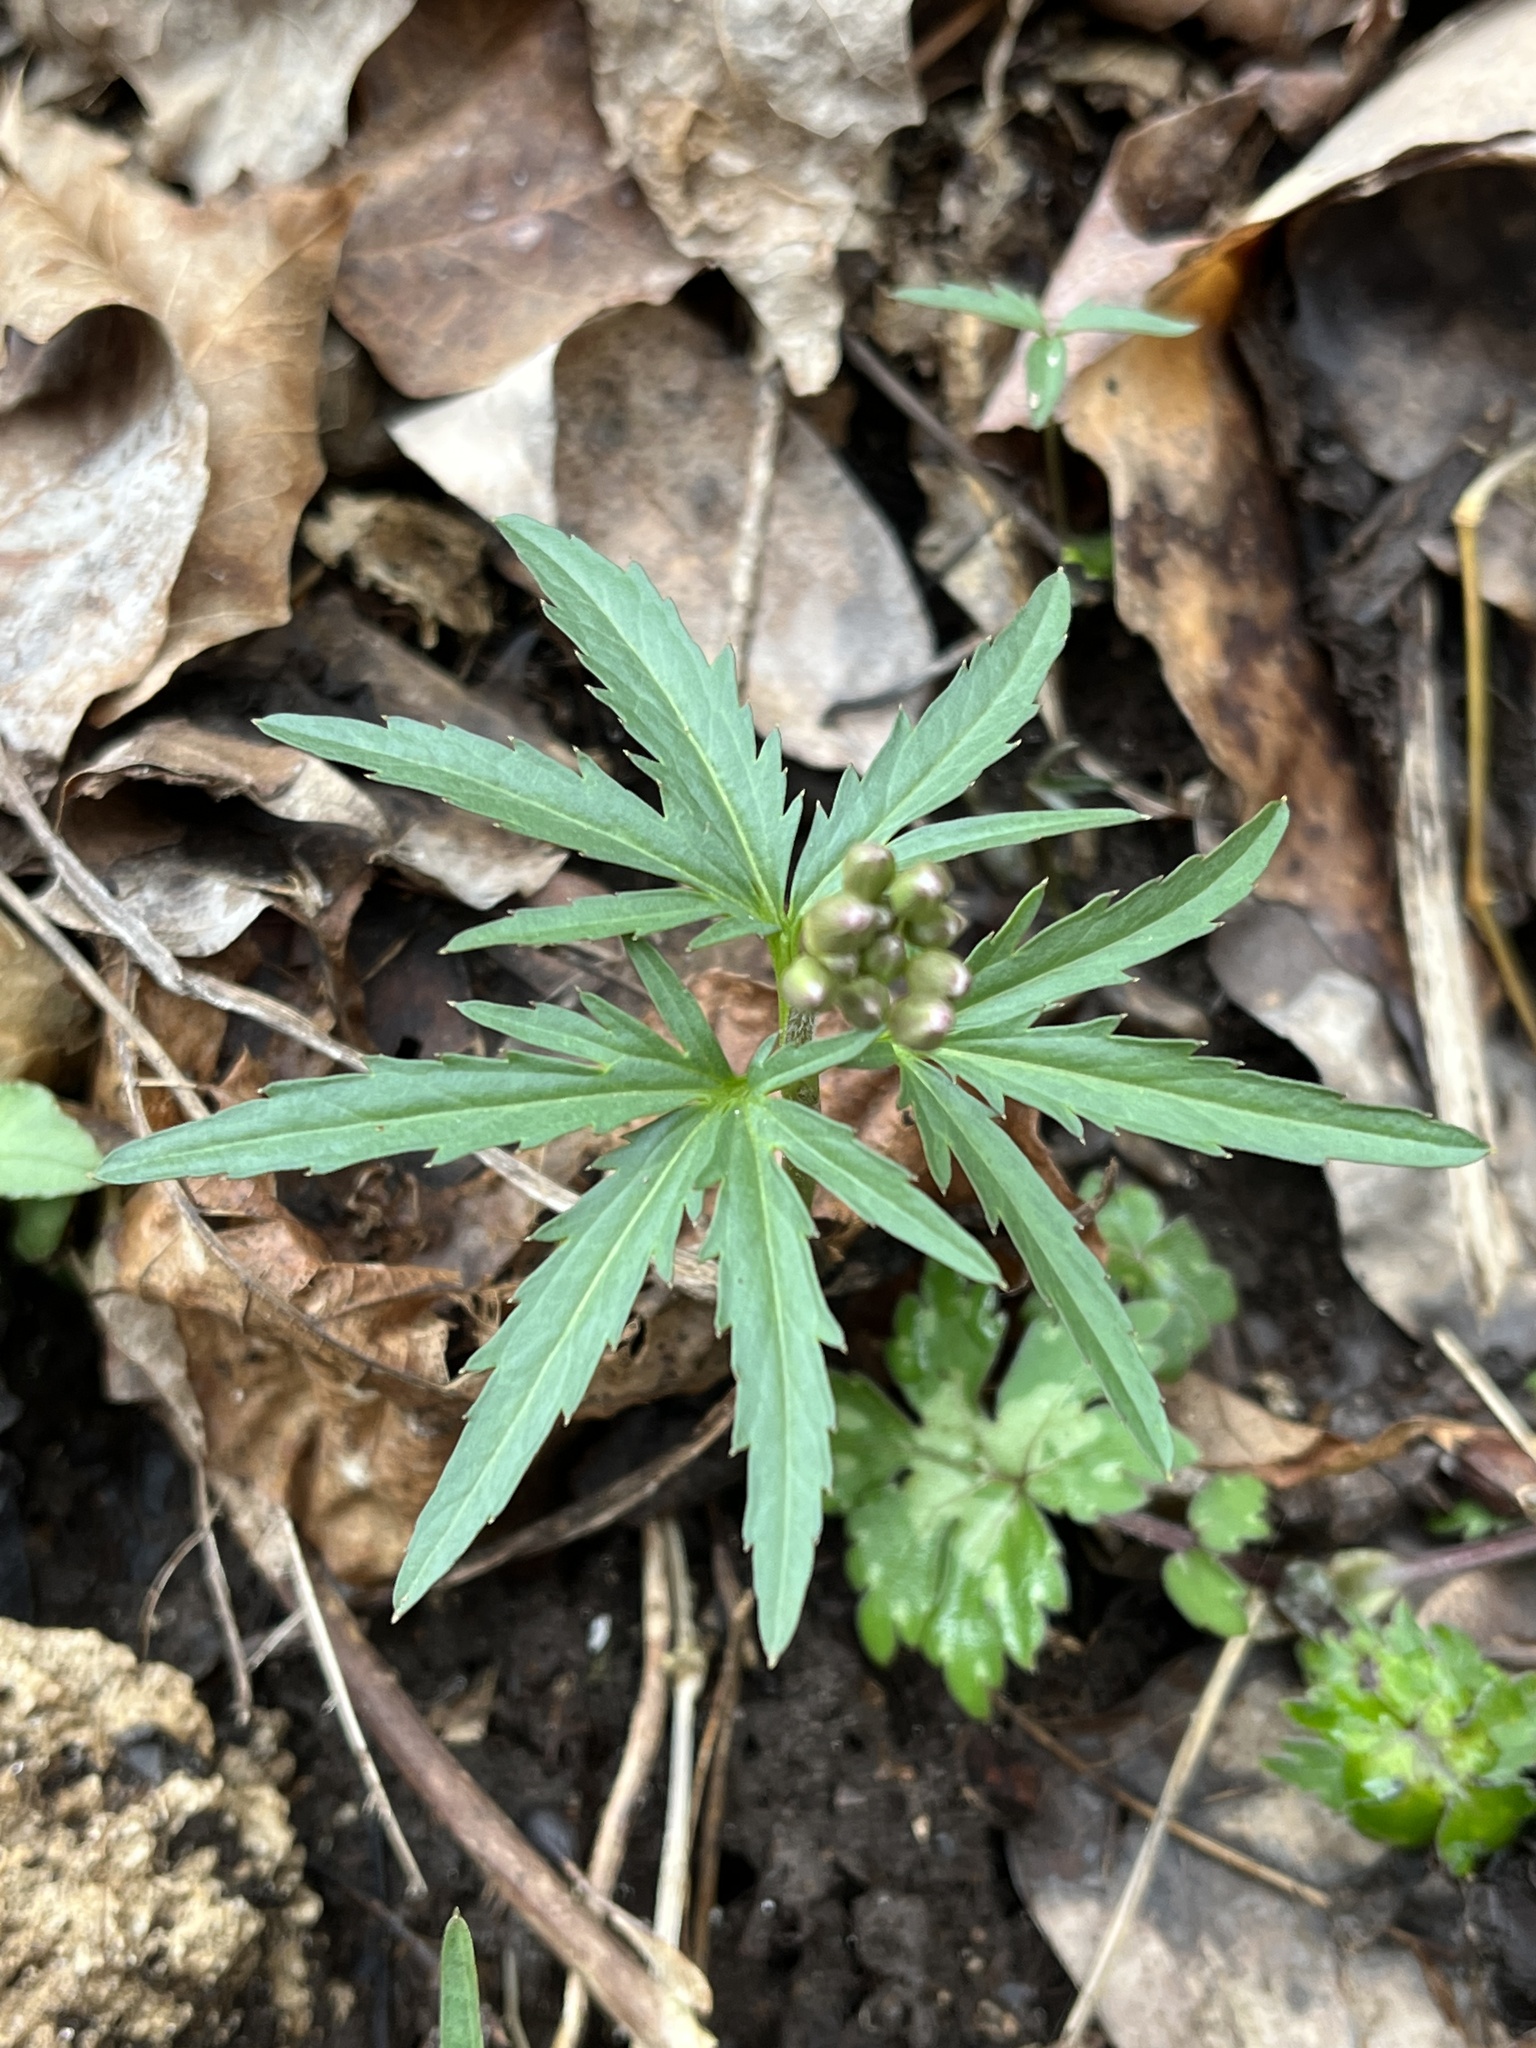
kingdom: Plantae
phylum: Tracheophyta
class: Magnoliopsida
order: Brassicales
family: Brassicaceae
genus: Cardamine
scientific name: Cardamine concatenata
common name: Cut-leaf toothcup
